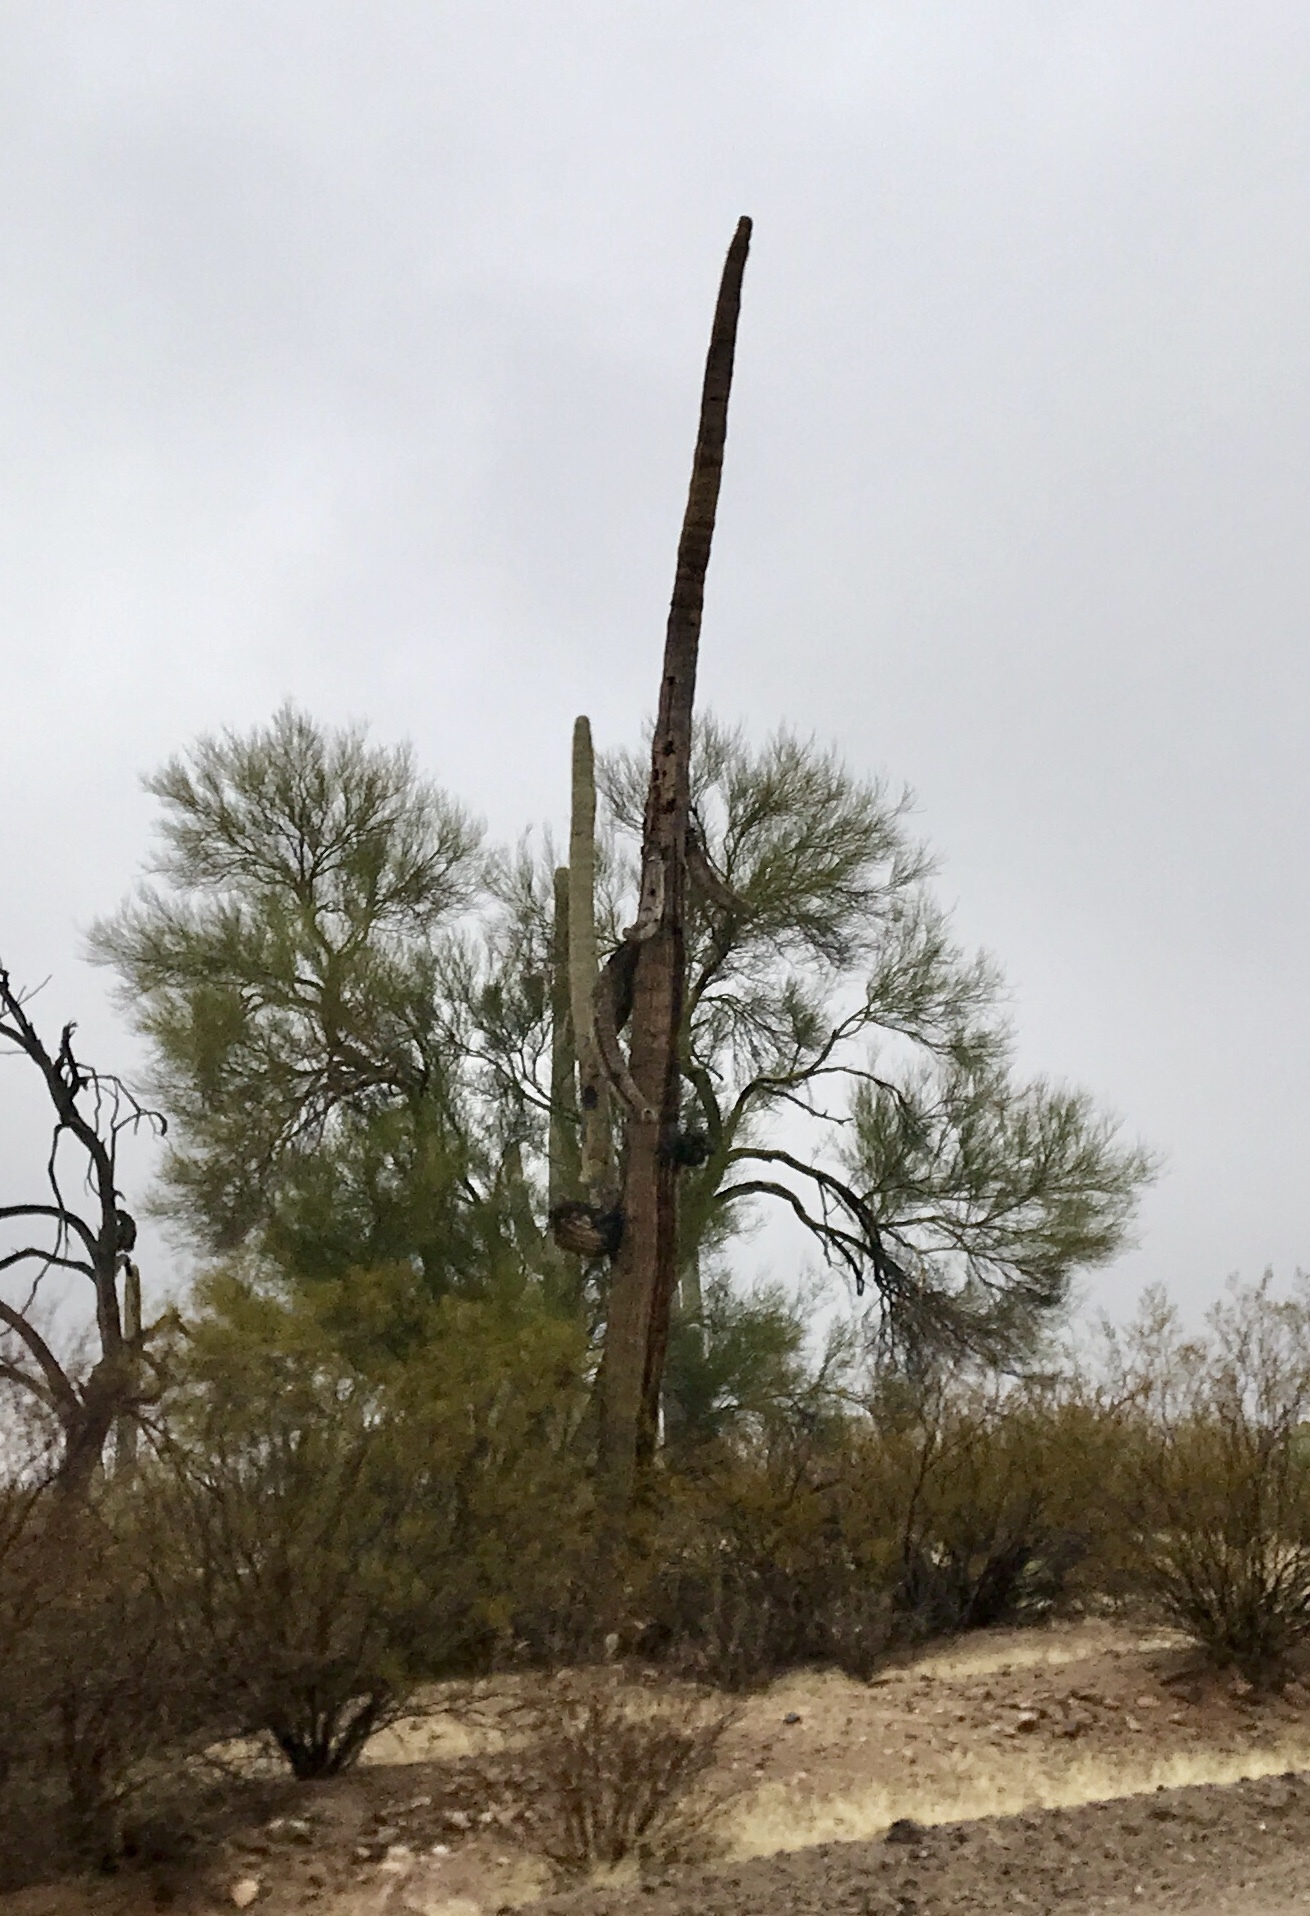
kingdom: Plantae
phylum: Tracheophyta
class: Magnoliopsida
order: Caryophyllales
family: Cactaceae
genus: Carnegiea
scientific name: Carnegiea gigantea
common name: Saguaro
